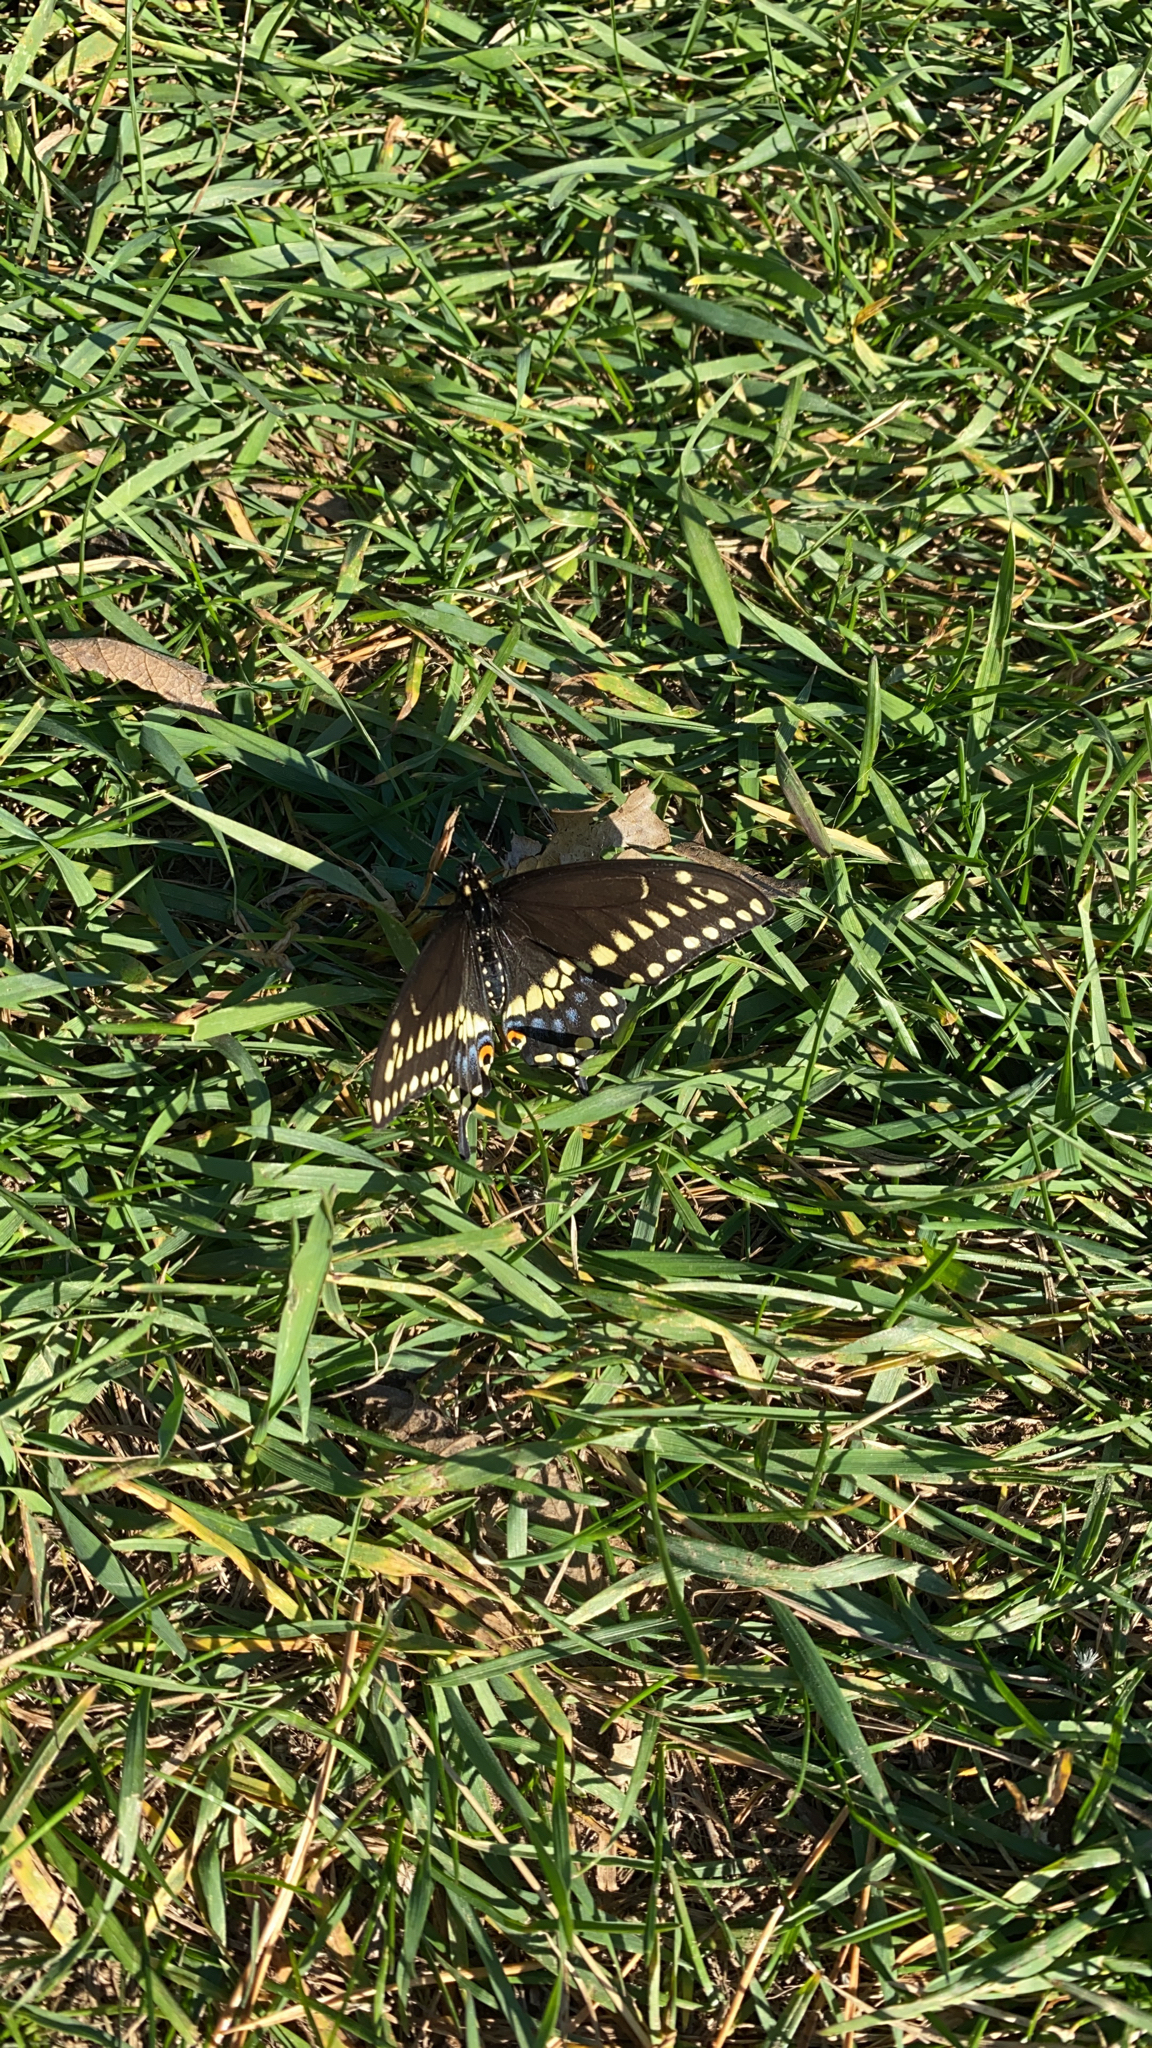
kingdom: Animalia
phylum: Arthropoda
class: Insecta
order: Lepidoptera
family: Papilionidae
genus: Papilio
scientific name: Papilio polyxenes
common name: Black swallowtail
